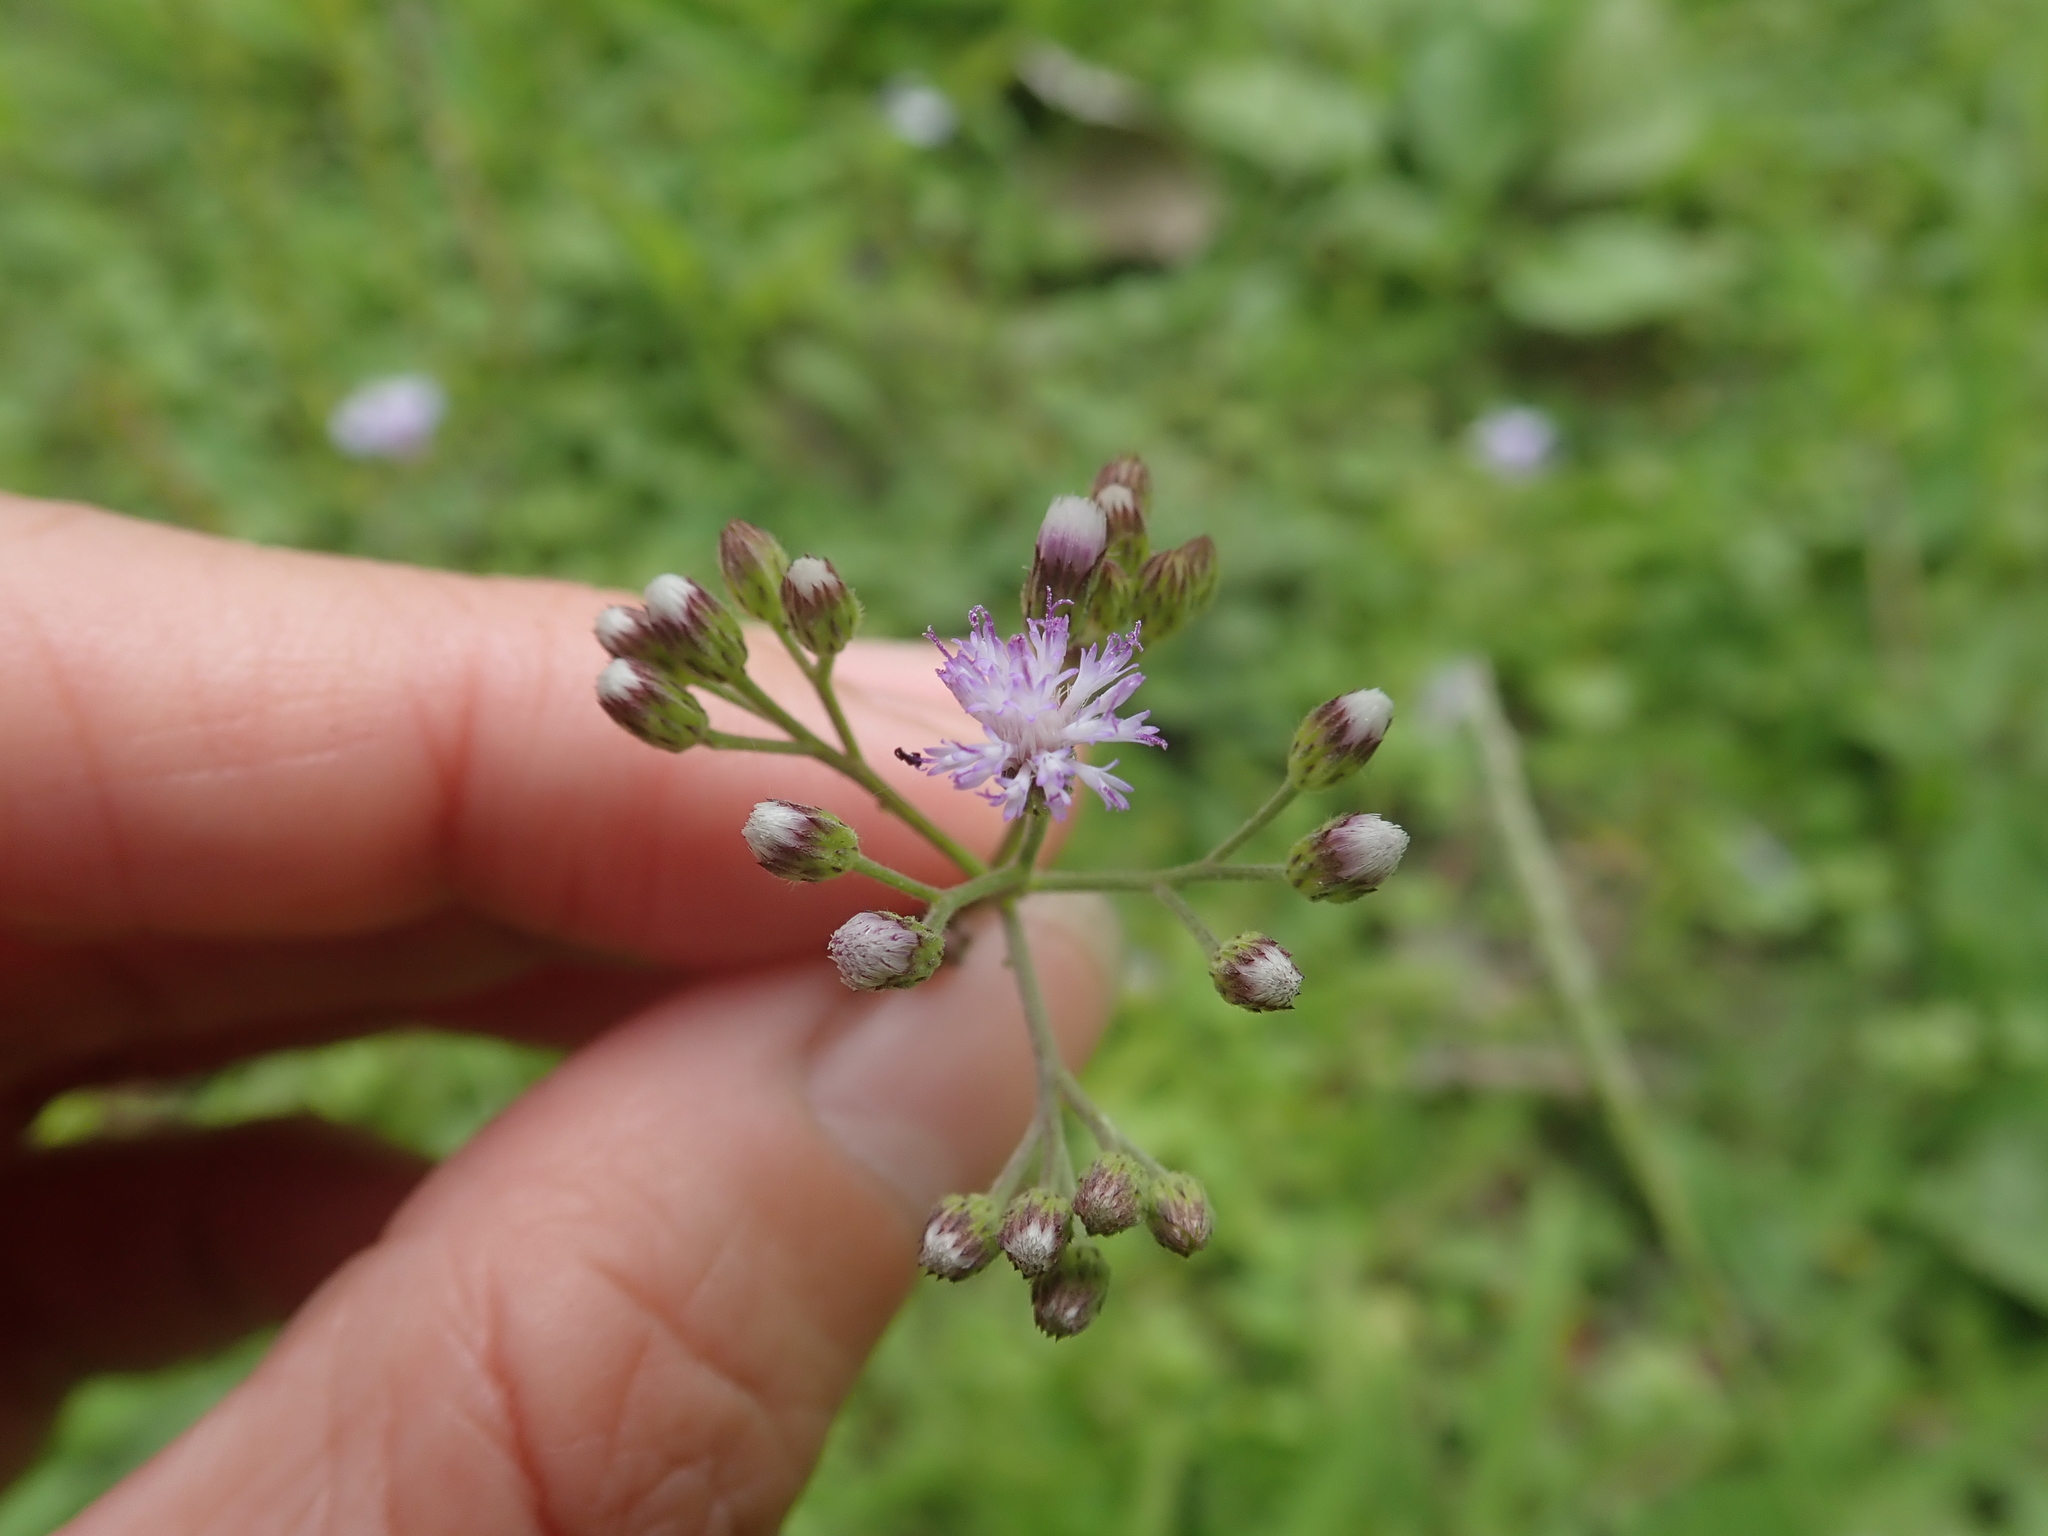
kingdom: Plantae
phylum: Tracheophyta
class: Magnoliopsida
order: Asterales
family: Asteraceae
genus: Cyanthillium
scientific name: Cyanthillium cinereum
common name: Little ironweed
